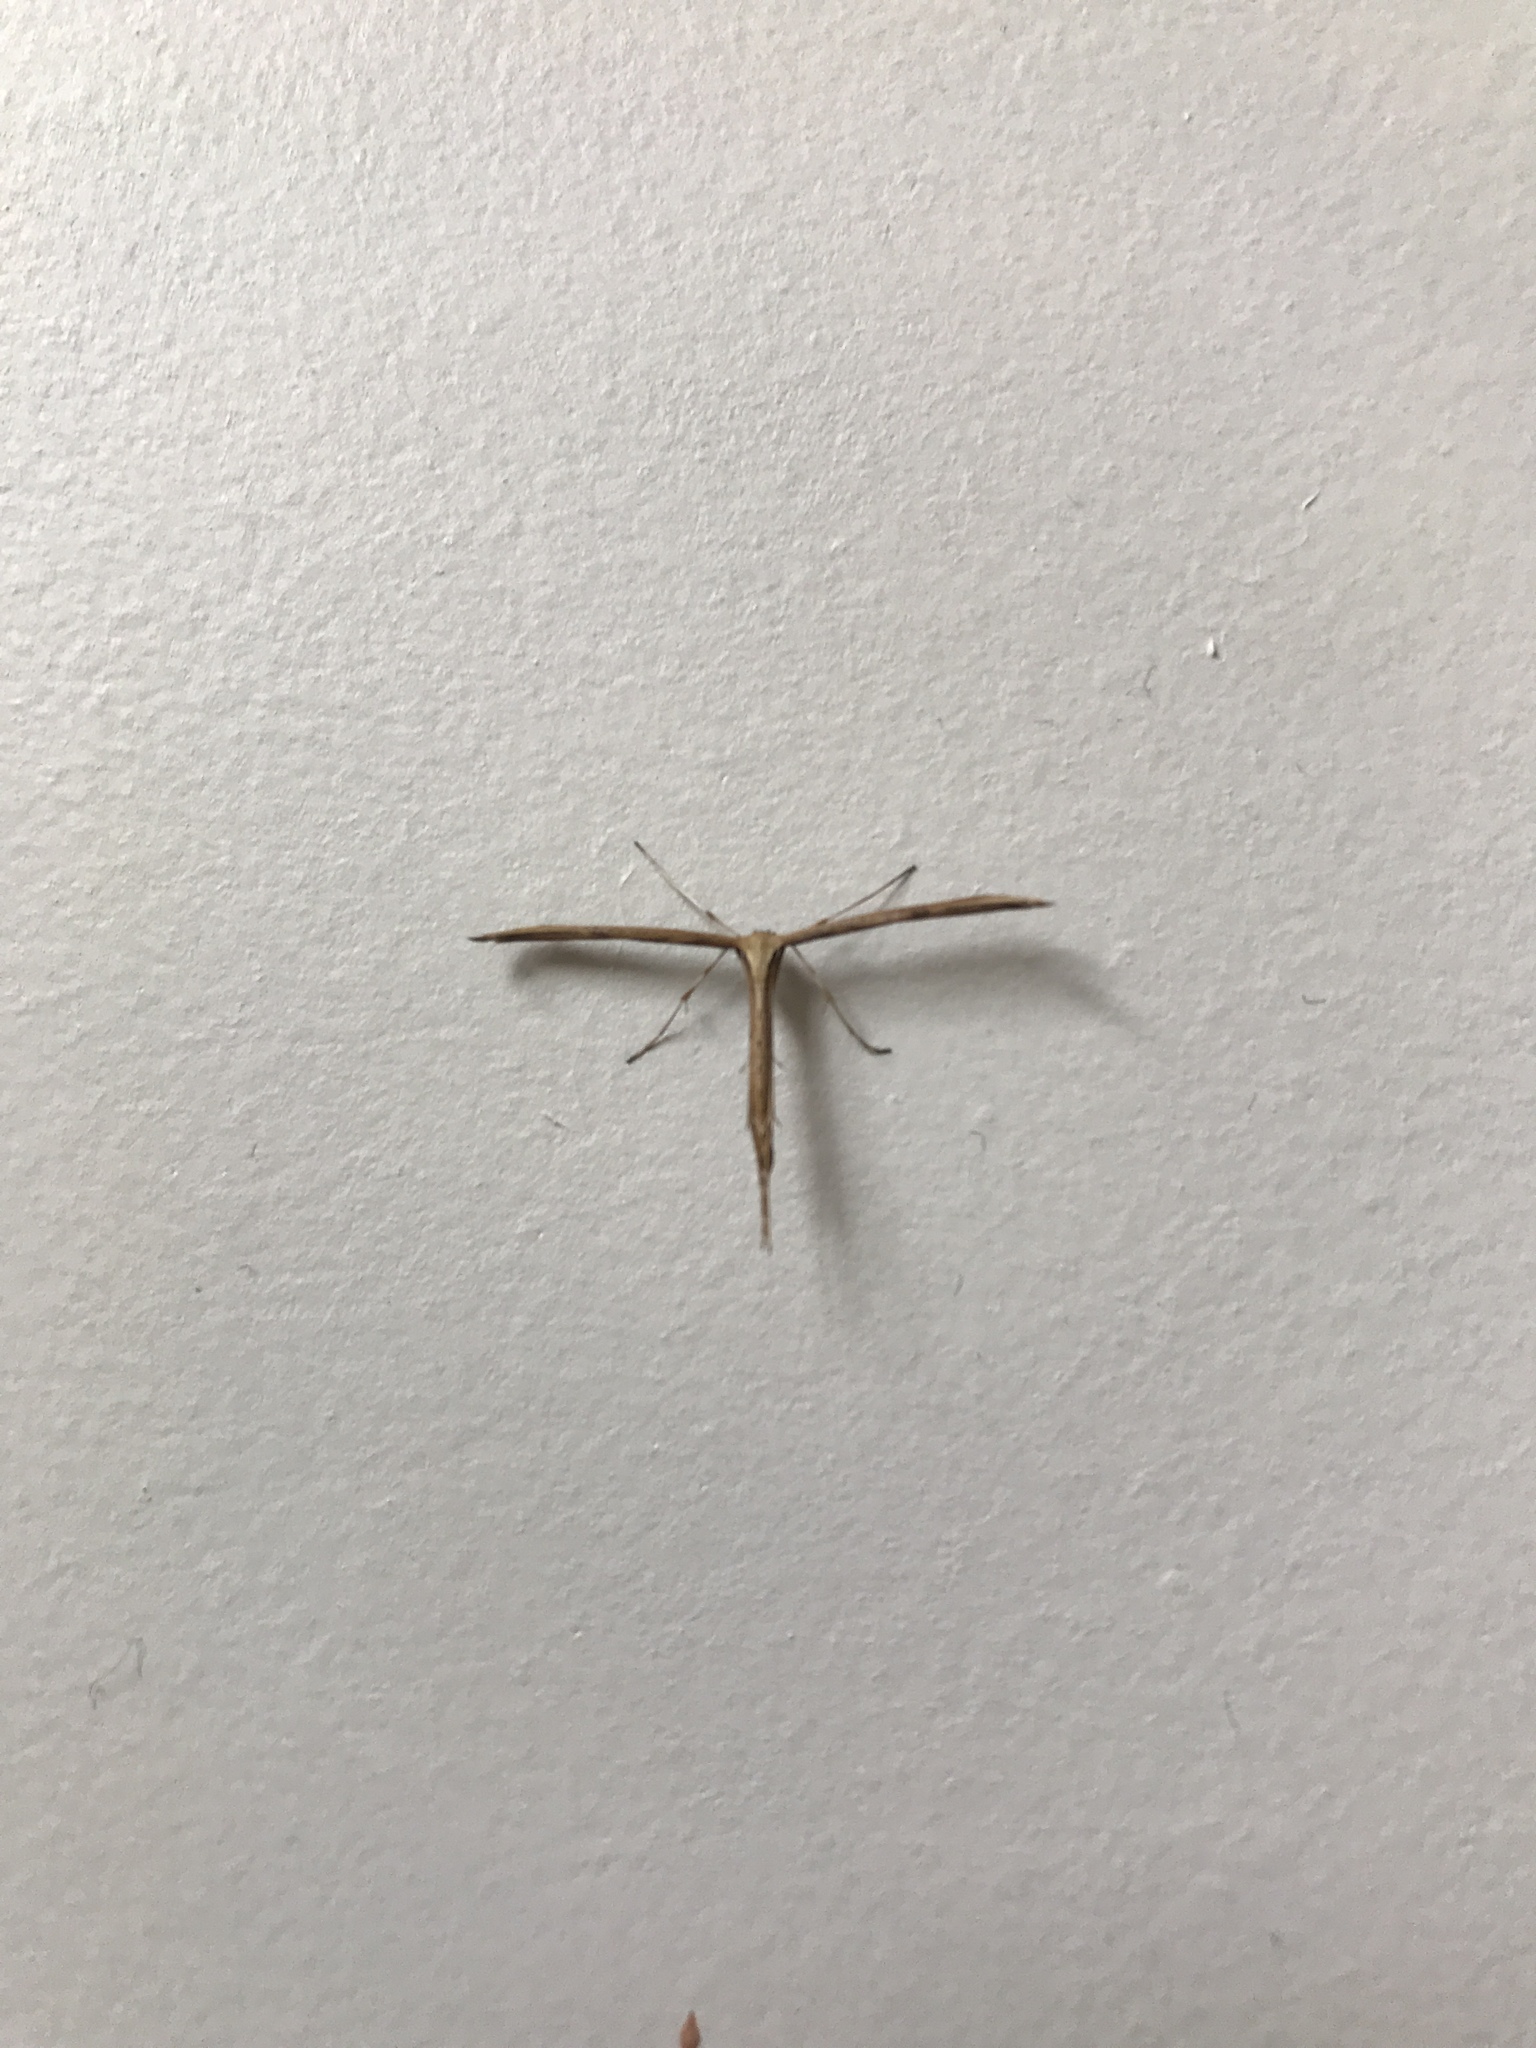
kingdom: Animalia
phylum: Arthropoda
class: Insecta
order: Lepidoptera
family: Pterophoridae
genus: Emmelina
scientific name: Emmelina monodactyla
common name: Common plume
